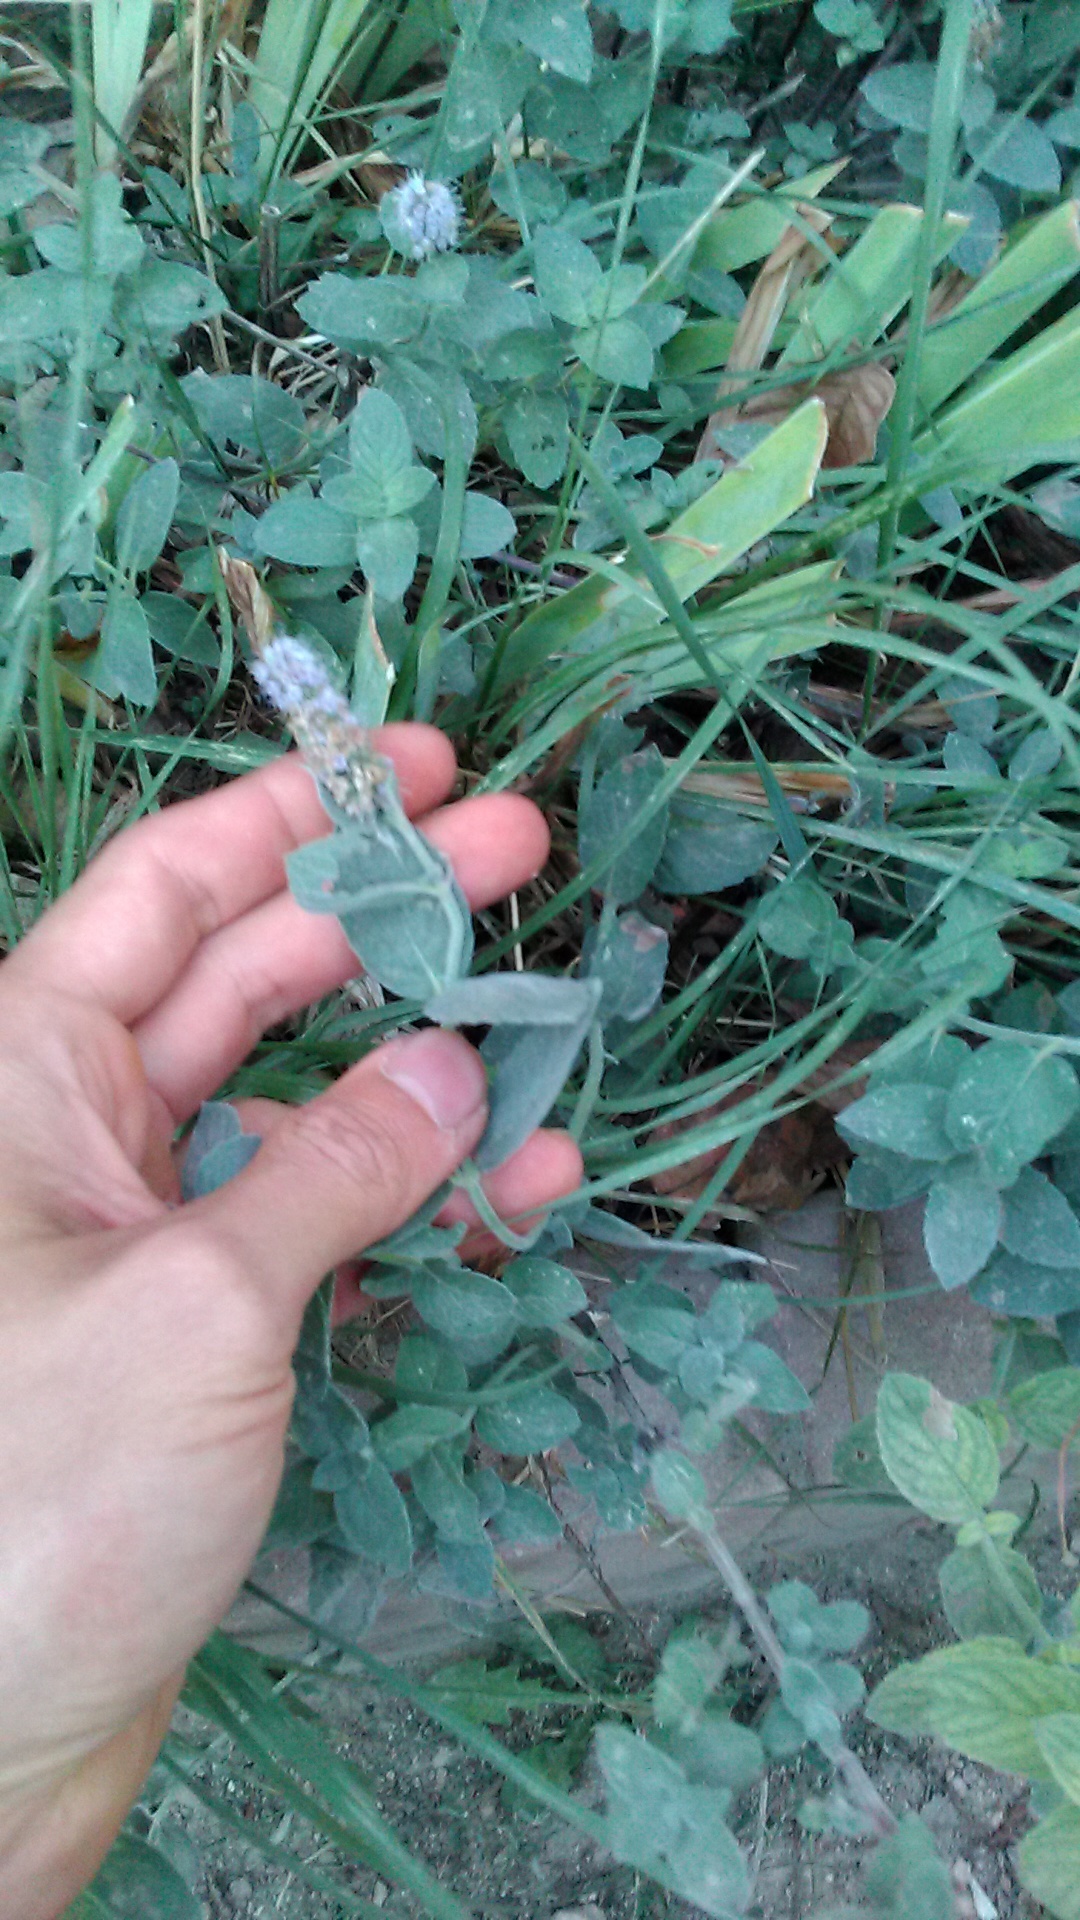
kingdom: Plantae
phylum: Tracheophyta
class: Magnoliopsida
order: Lamiales
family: Lamiaceae
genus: Mentha
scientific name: Mentha longifolia
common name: Horse mint
